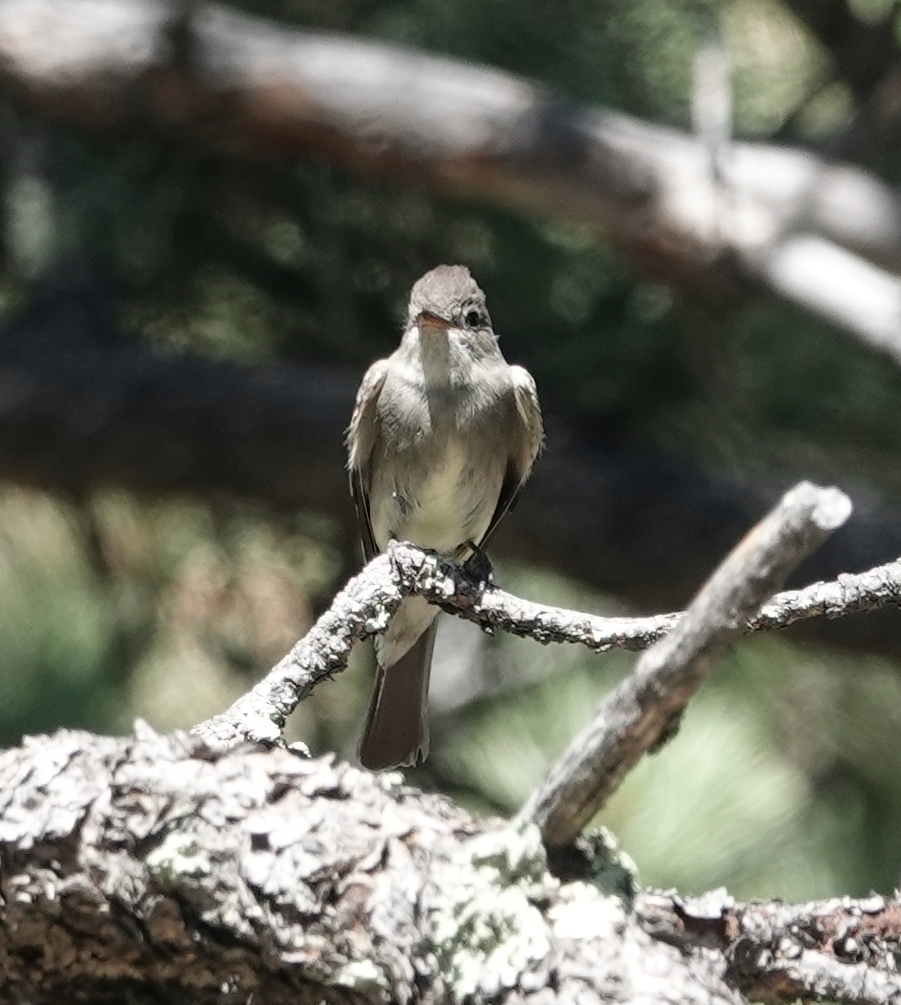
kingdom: Animalia
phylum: Chordata
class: Aves
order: Passeriformes
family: Tyrannidae
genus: Contopus
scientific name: Contopus sordidulus
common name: Western wood-pewee
